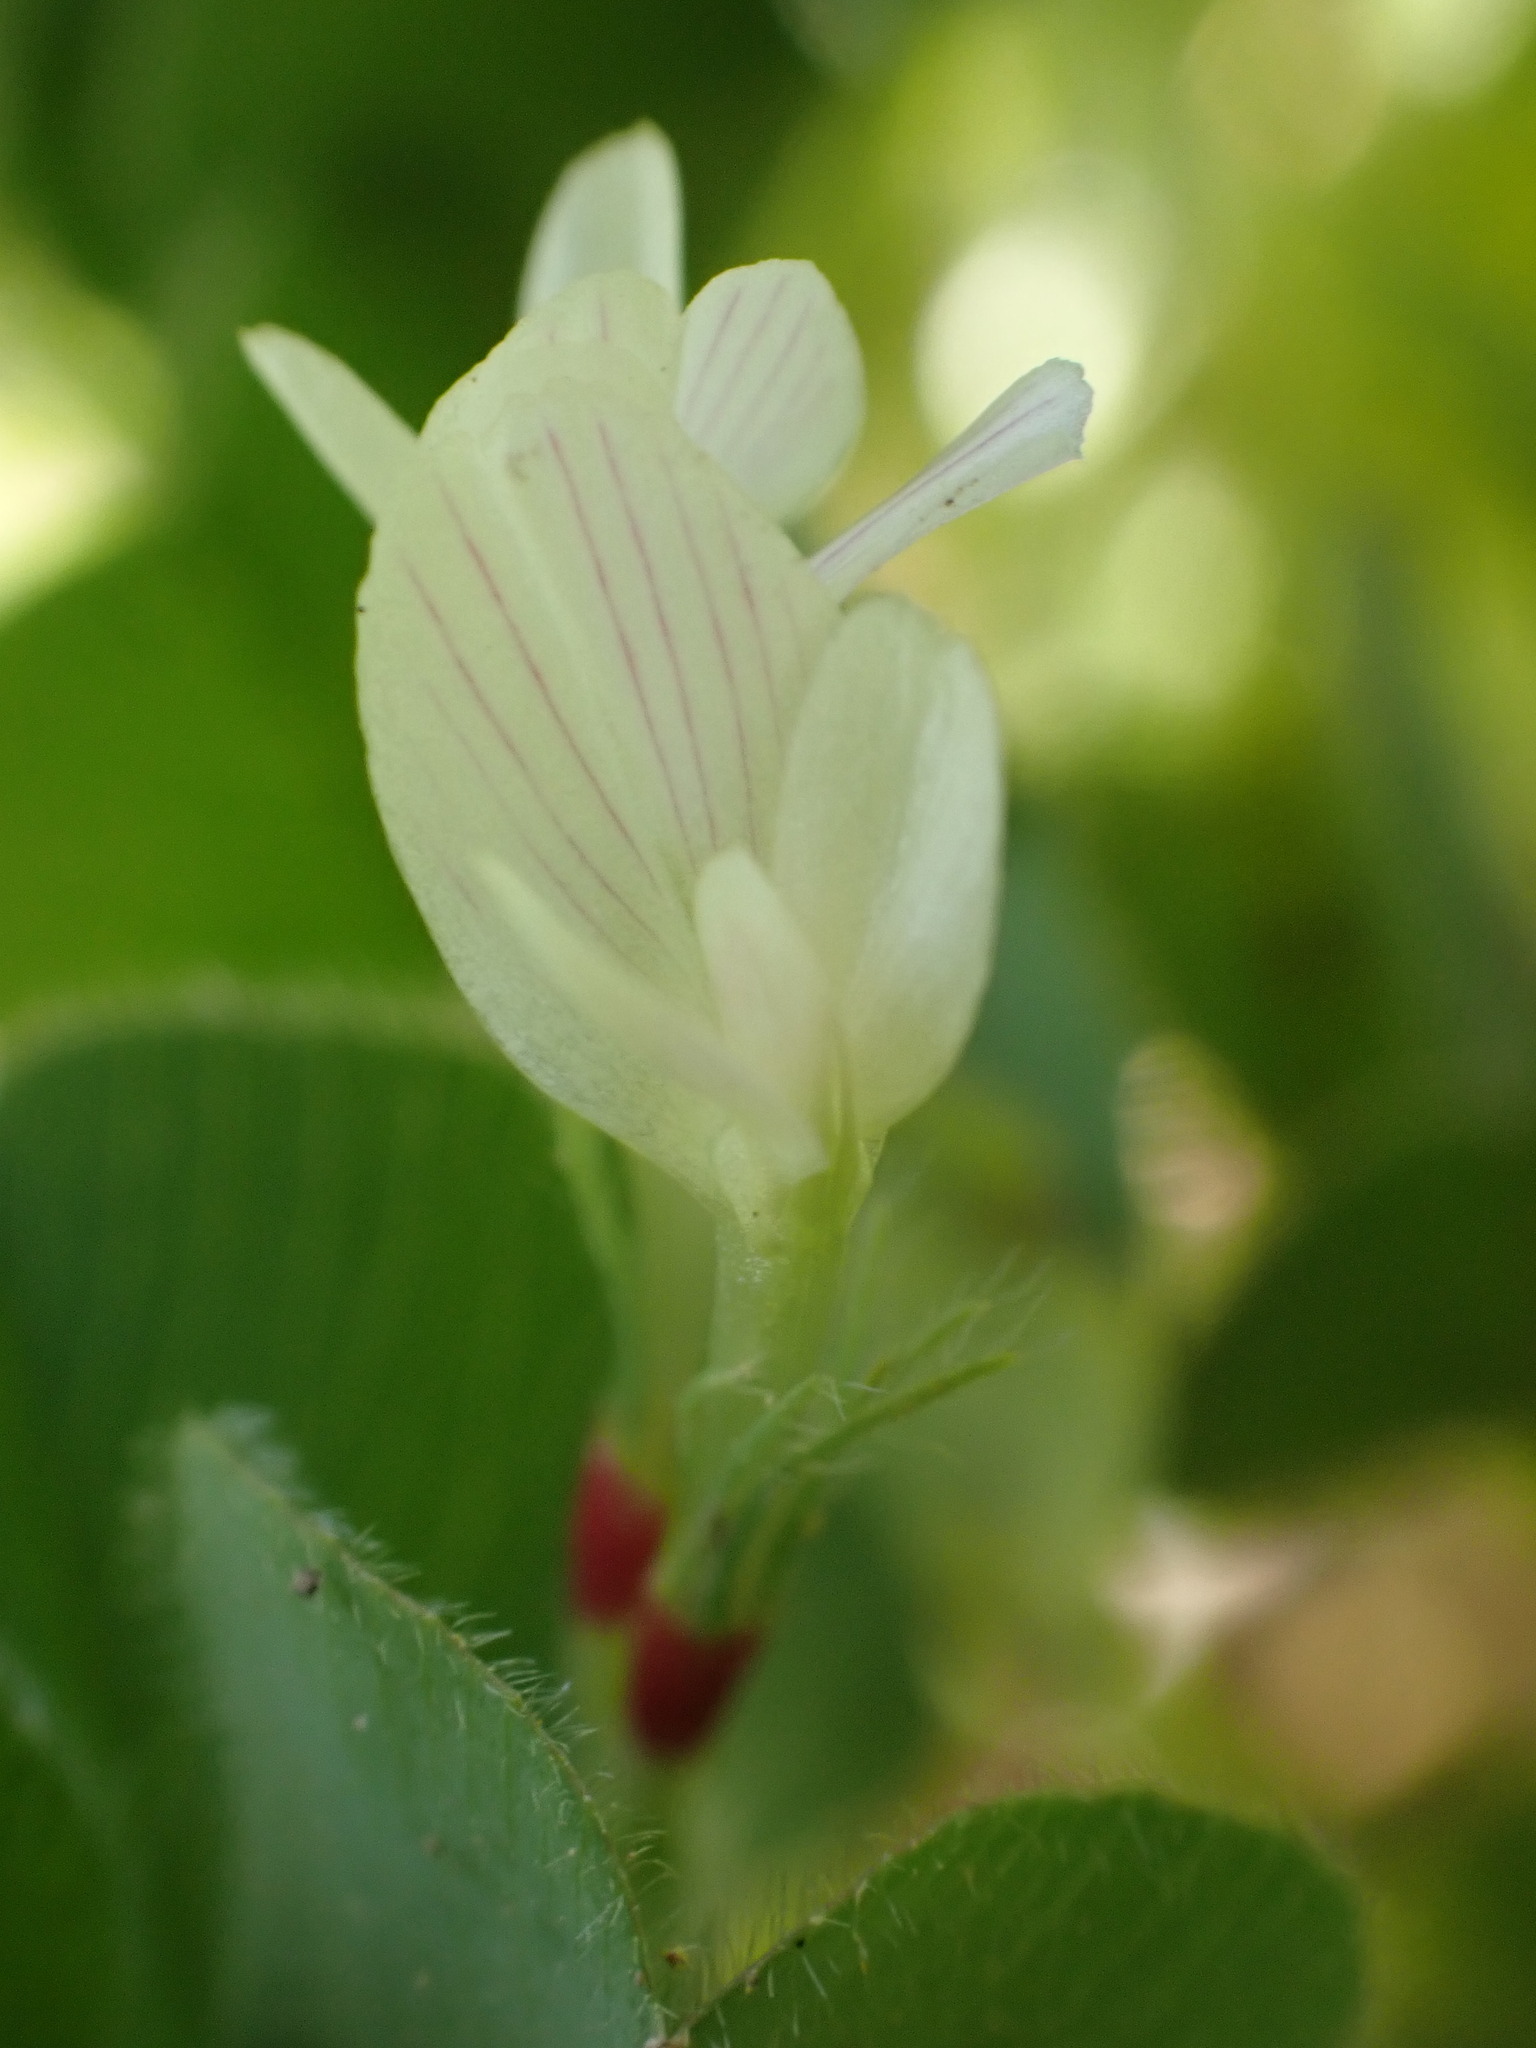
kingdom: Plantae
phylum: Tracheophyta
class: Magnoliopsida
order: Fabales
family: Fabaceae
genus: Trifolium
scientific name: Trifolium subterraneum
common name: Subterranean clover
